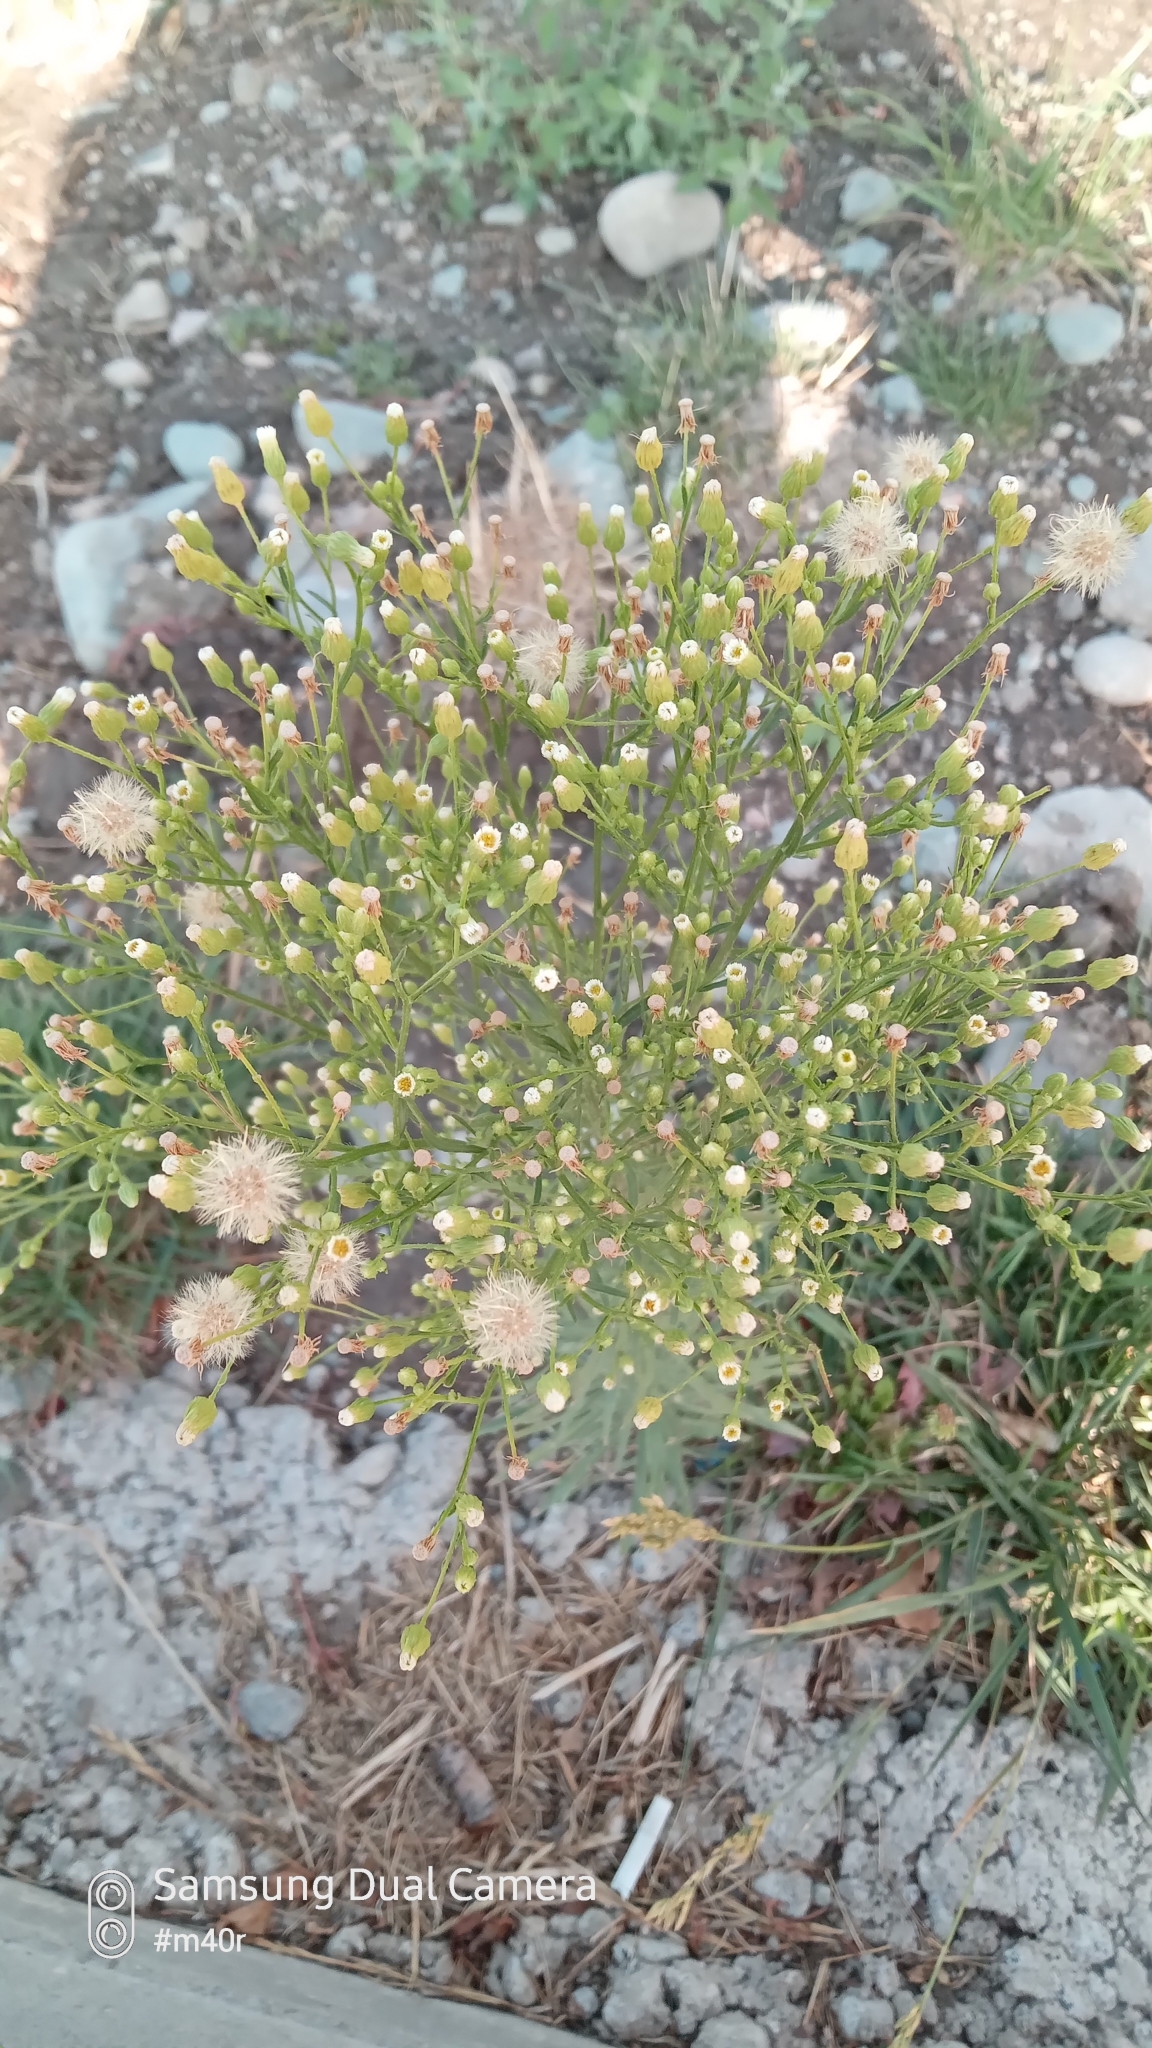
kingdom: Plantae
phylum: Tracheophyta
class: Magnoliopsida
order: Asterales
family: Asteraceae
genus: Erigeron
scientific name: Erigeron canadensis
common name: Canadian fleabane
